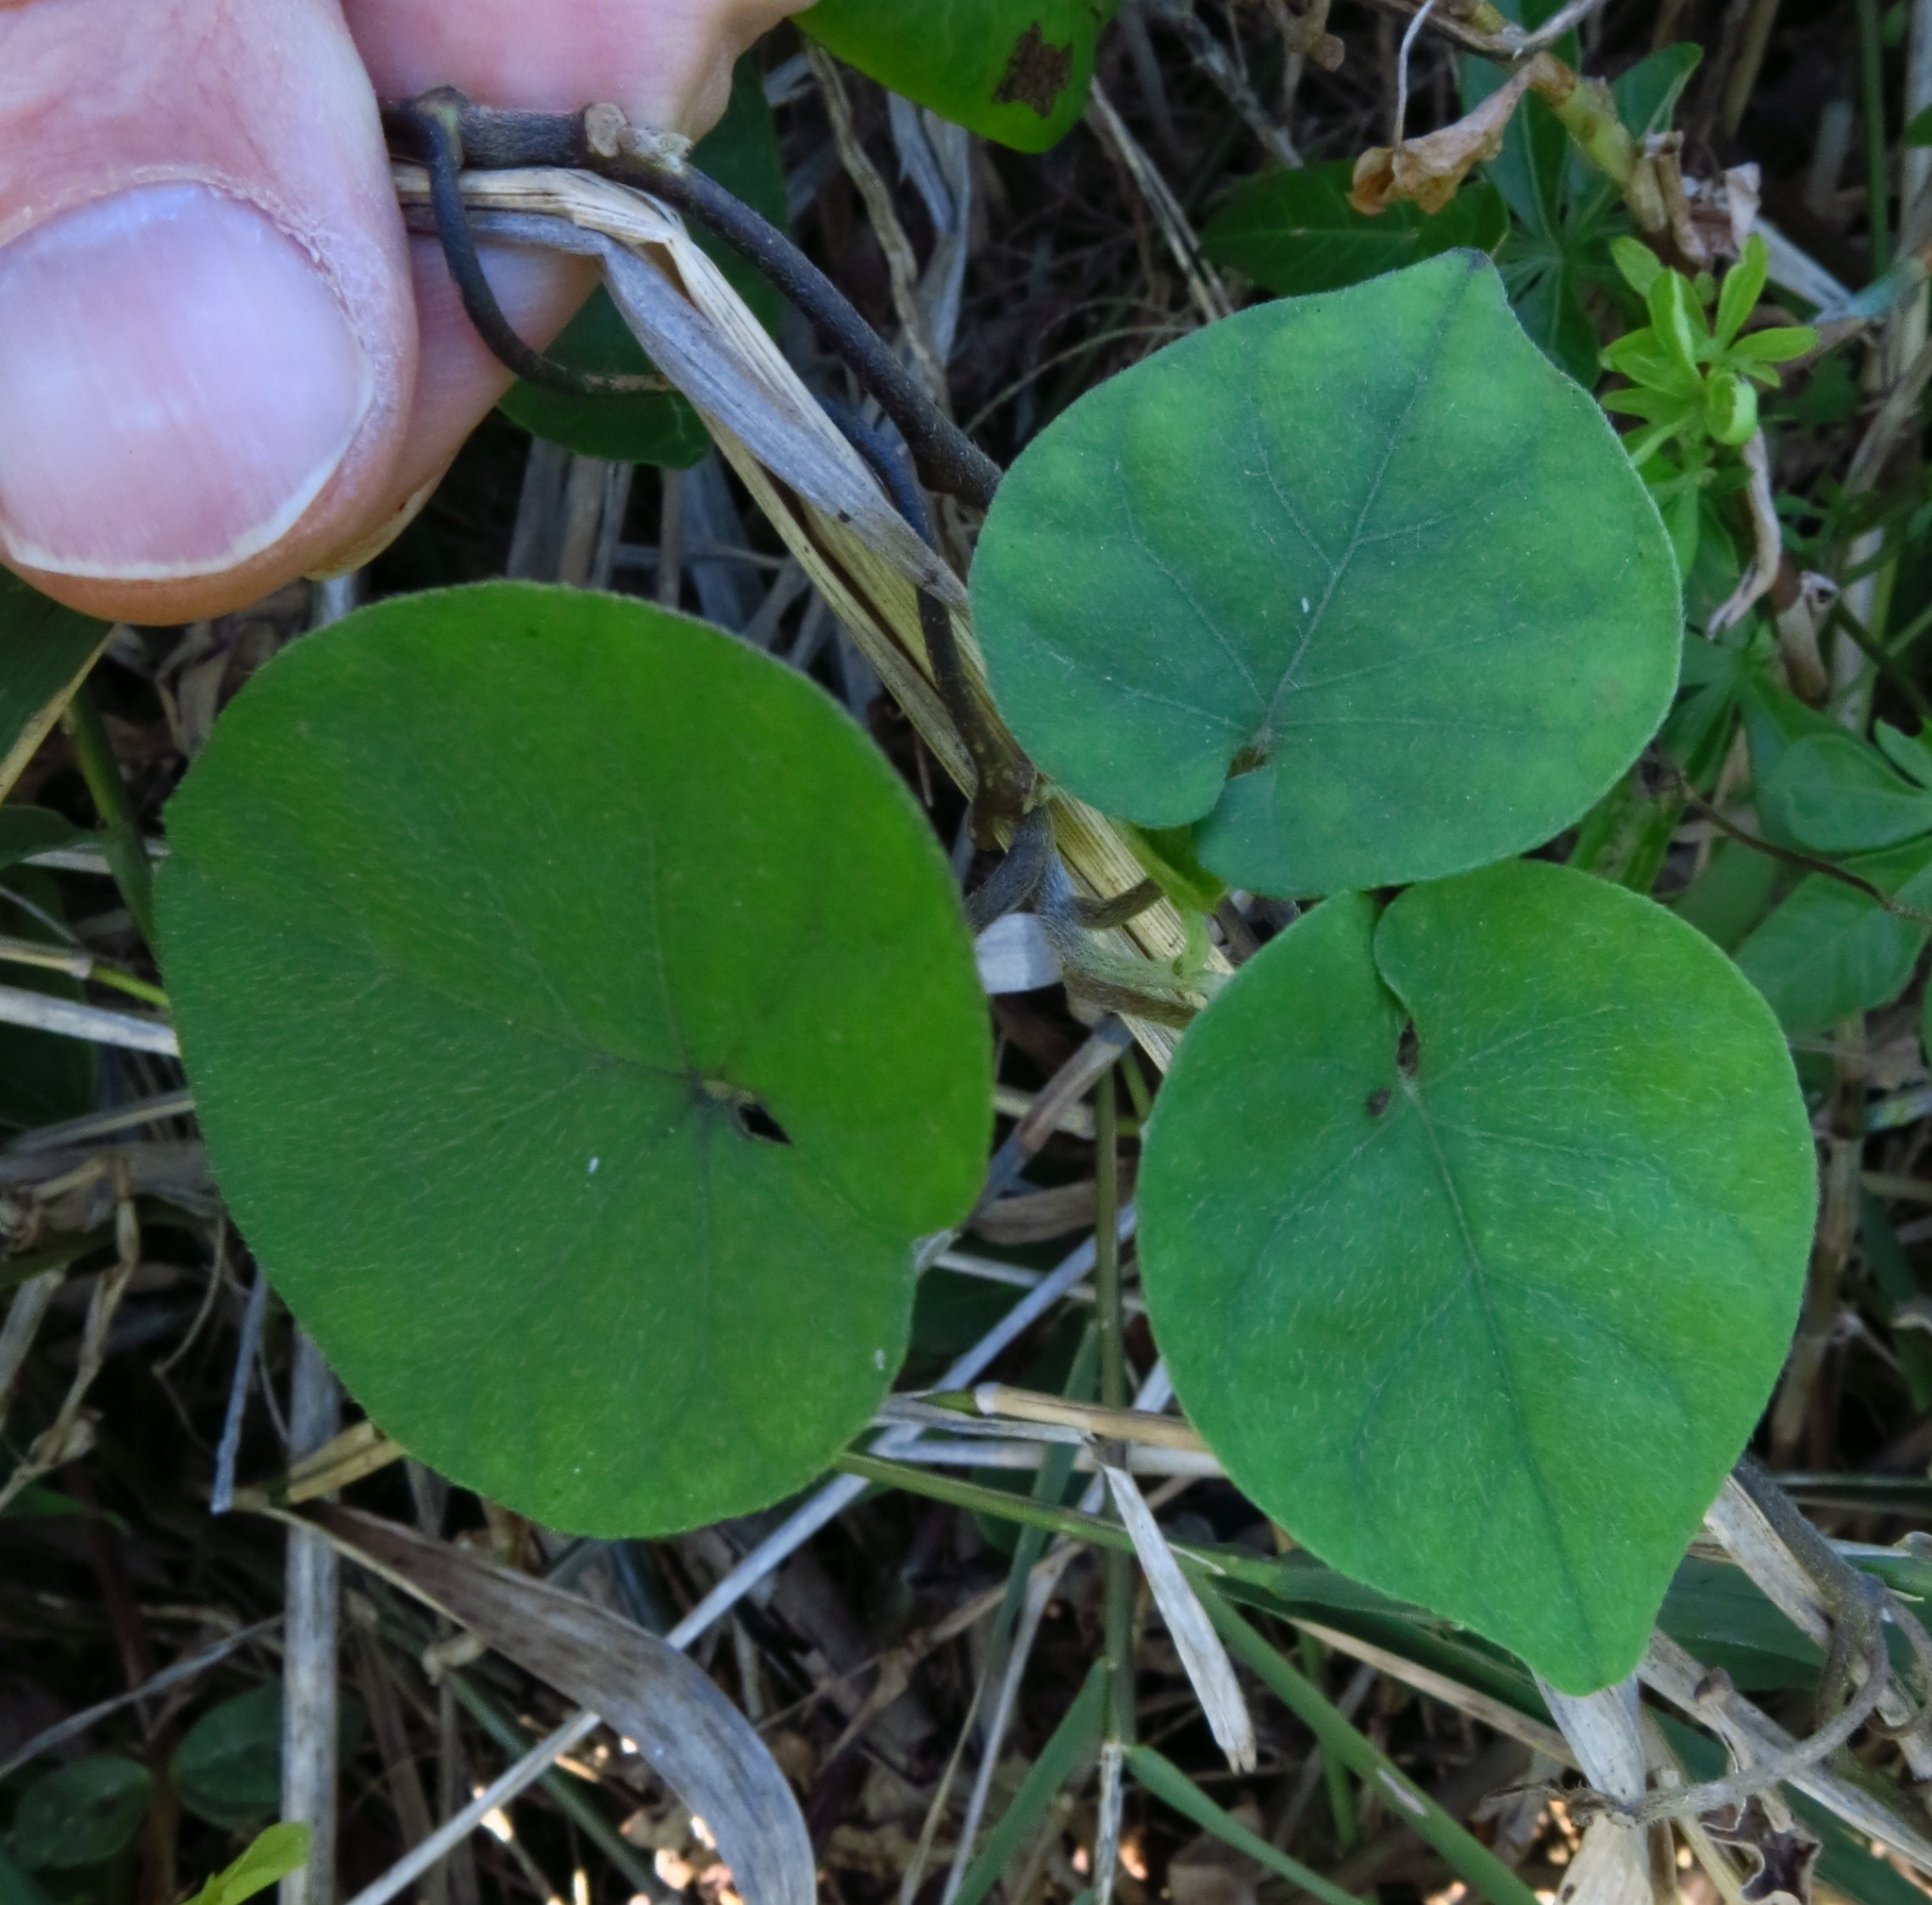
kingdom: Plantae
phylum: Tracheophyta
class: Magnoliopsida
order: Solanales
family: Convolvulaceae
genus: Ipomoea
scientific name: Ipomoea indica
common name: Blue dawnflower
